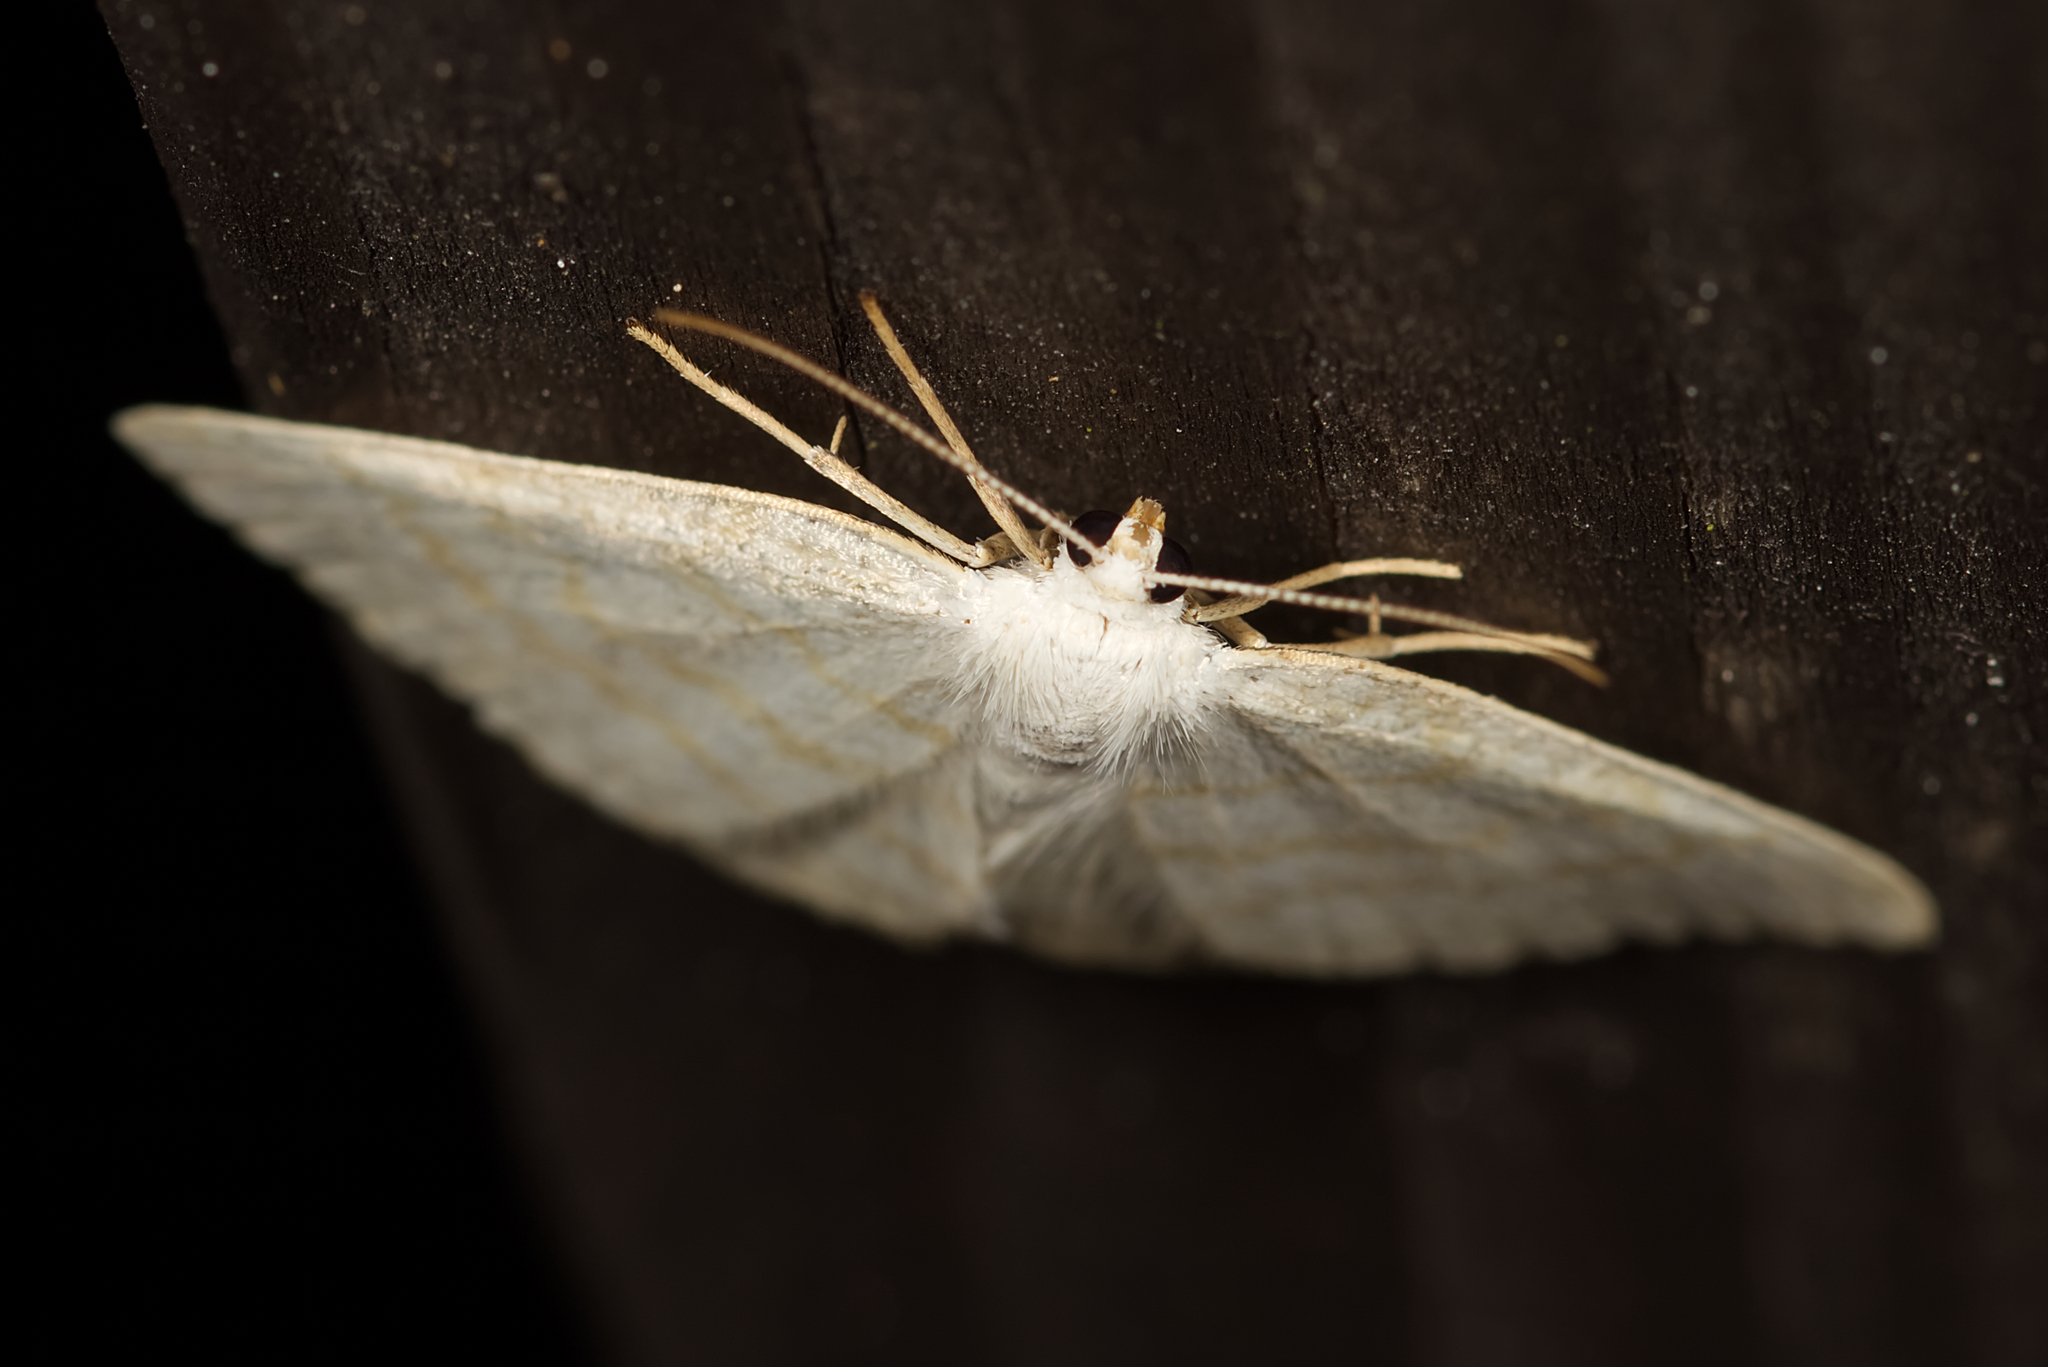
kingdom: Animalia
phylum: Arthropoda
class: Insecta
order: Lepidoptera
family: Geometridae
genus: Cabera
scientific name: Cabera exanthemata
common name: Common wave
